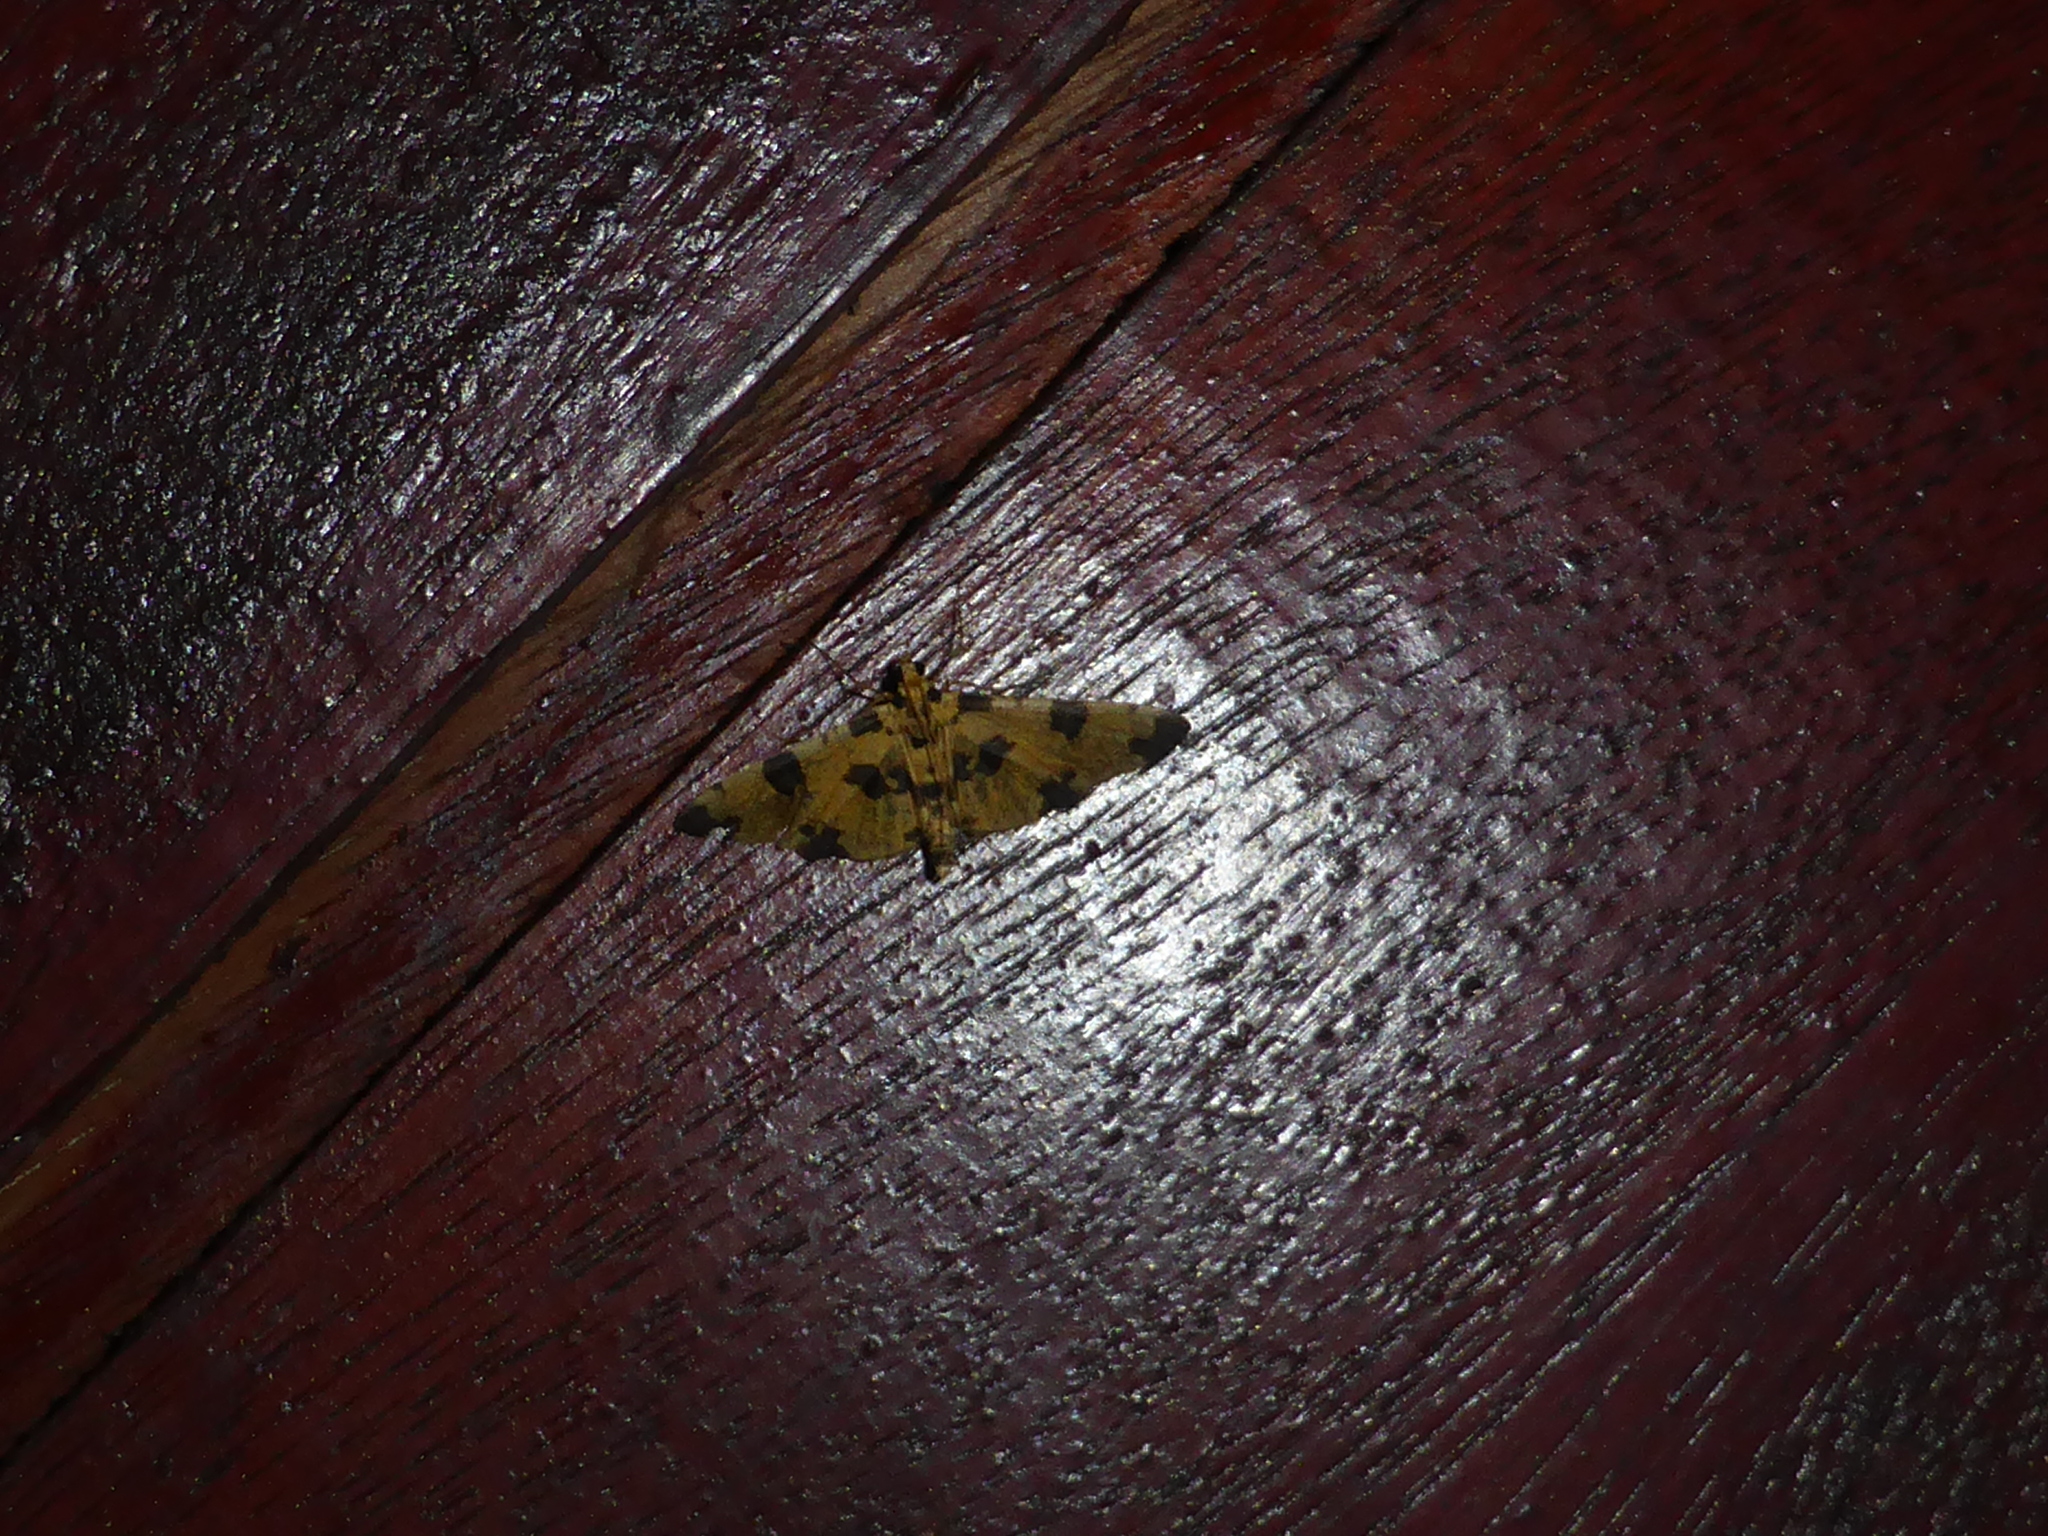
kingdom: Animalia
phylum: Arthropoda
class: Insecta
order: Lepidoptera
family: Crambidae
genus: Nacoleia
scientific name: Nacoleia insolitalis
